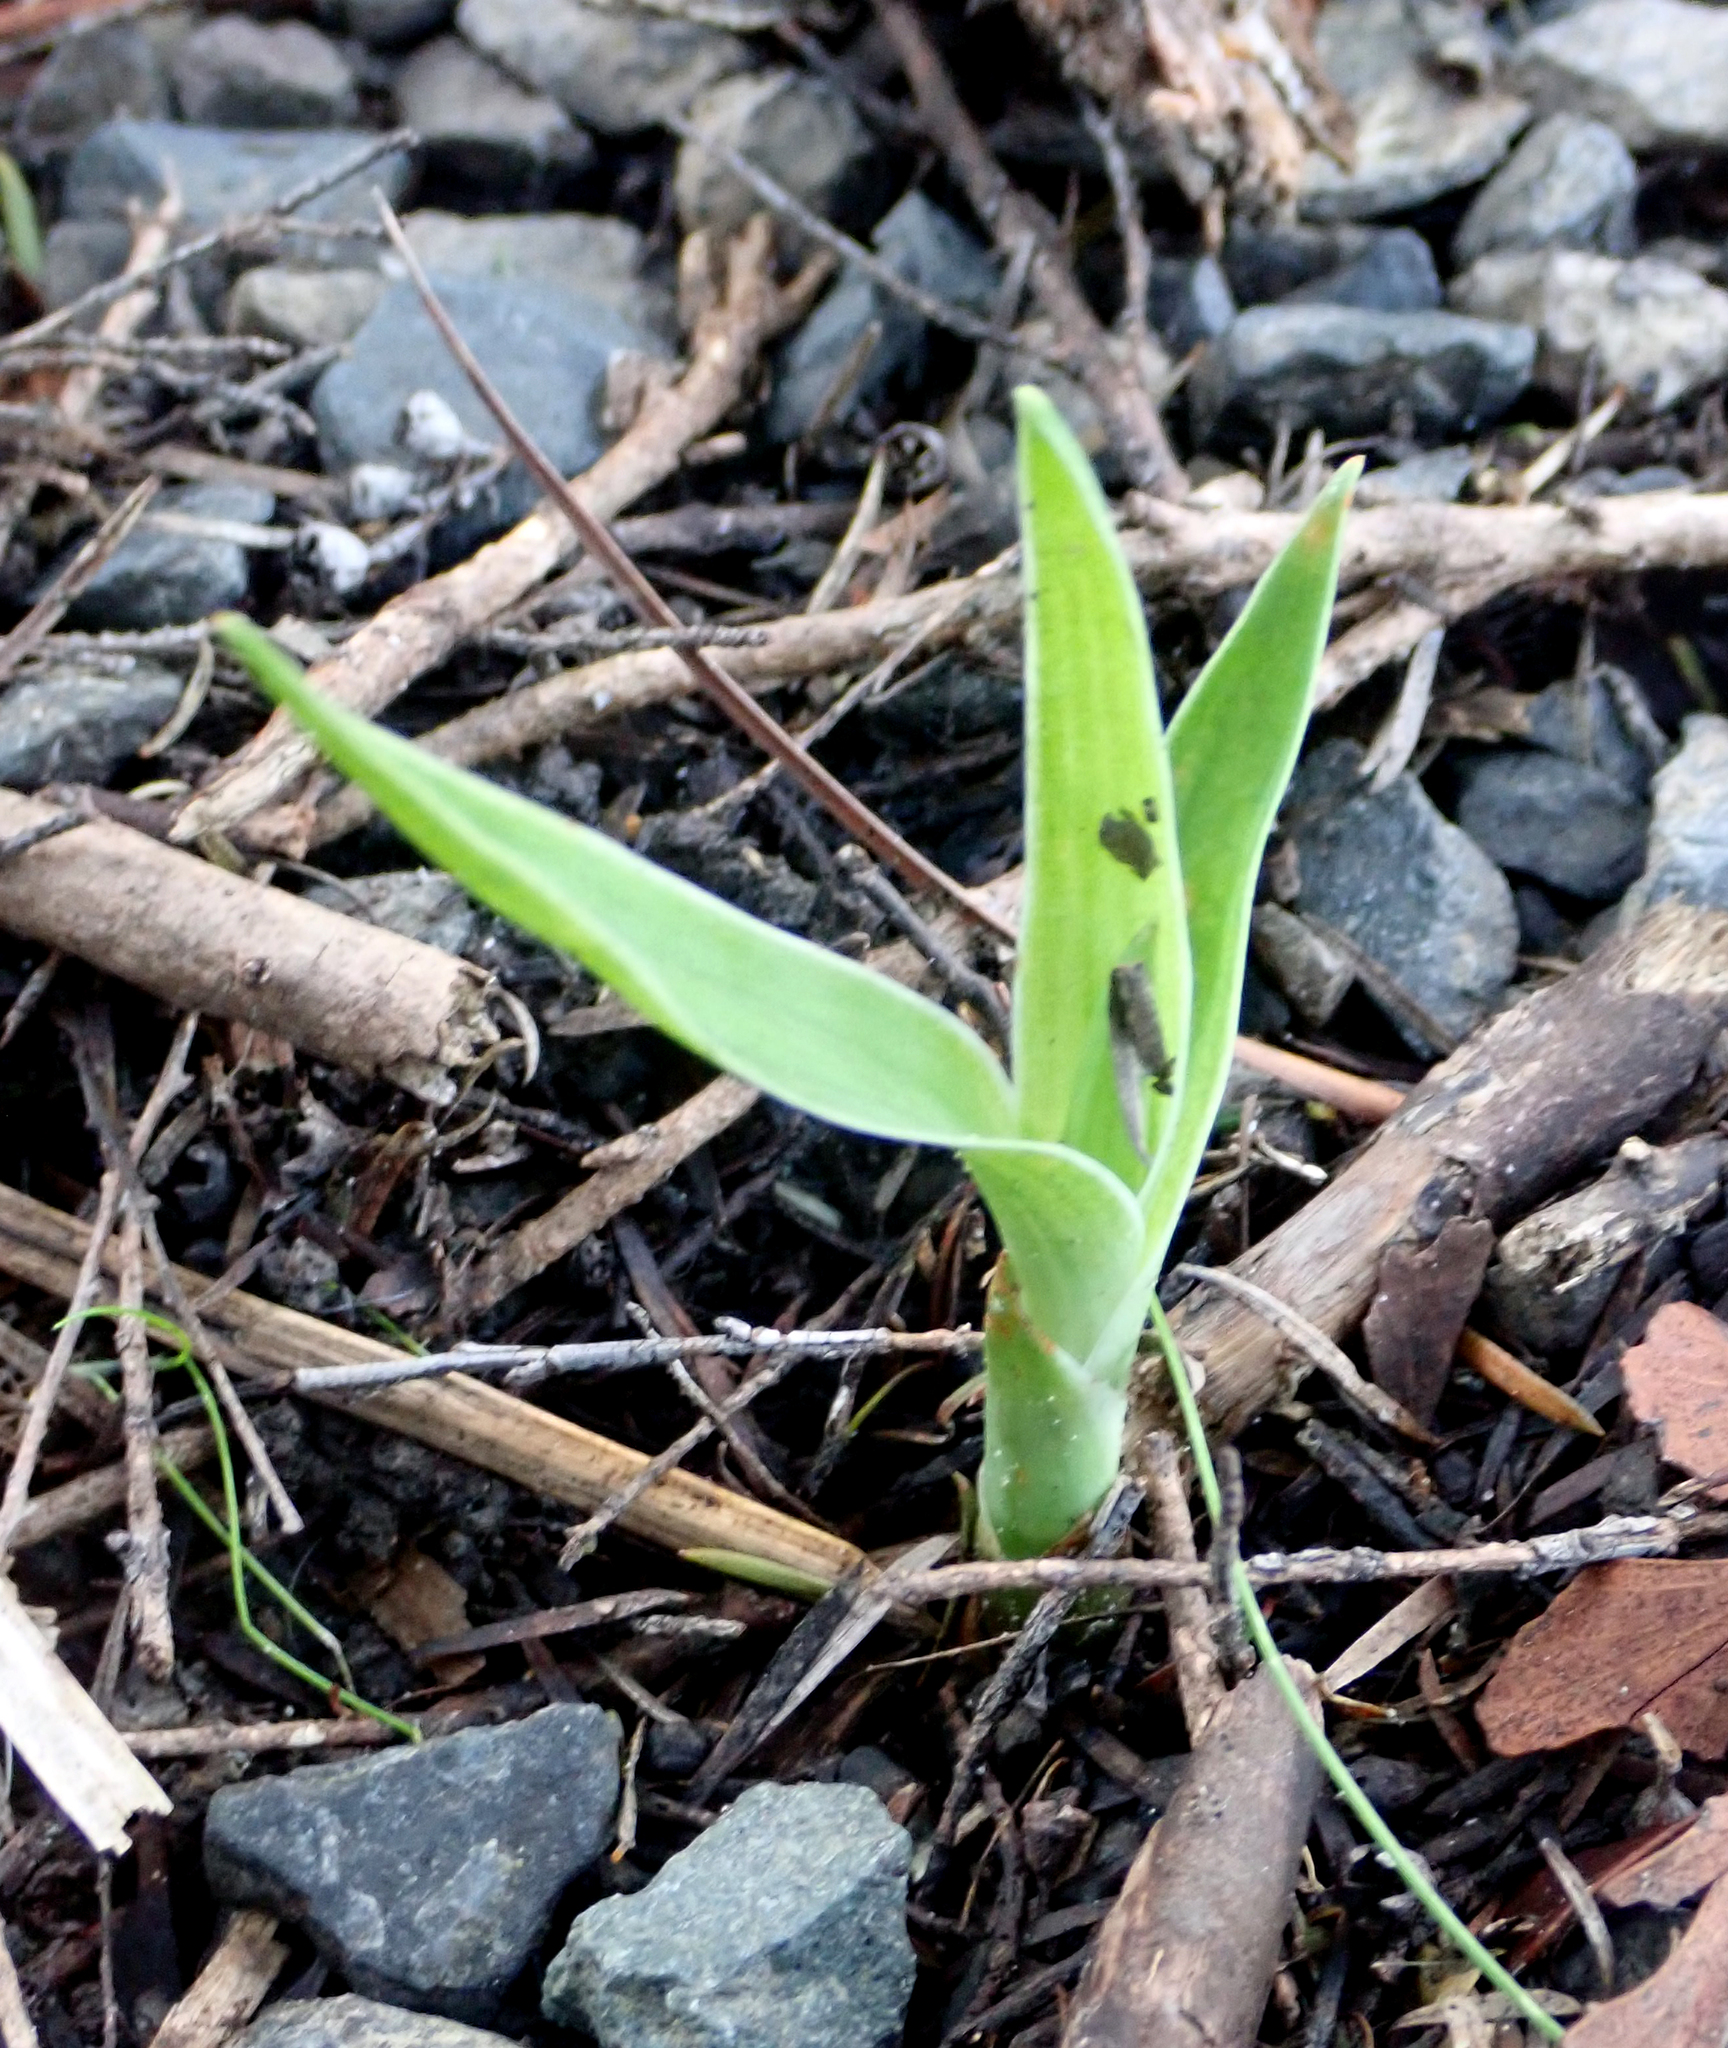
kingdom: Plantae
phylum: Tracheophyta
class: Liliopsida
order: Asparagales
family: Asparagaceae
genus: Dracaena
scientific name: Dracaena draco
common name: Canary island dragon tree
